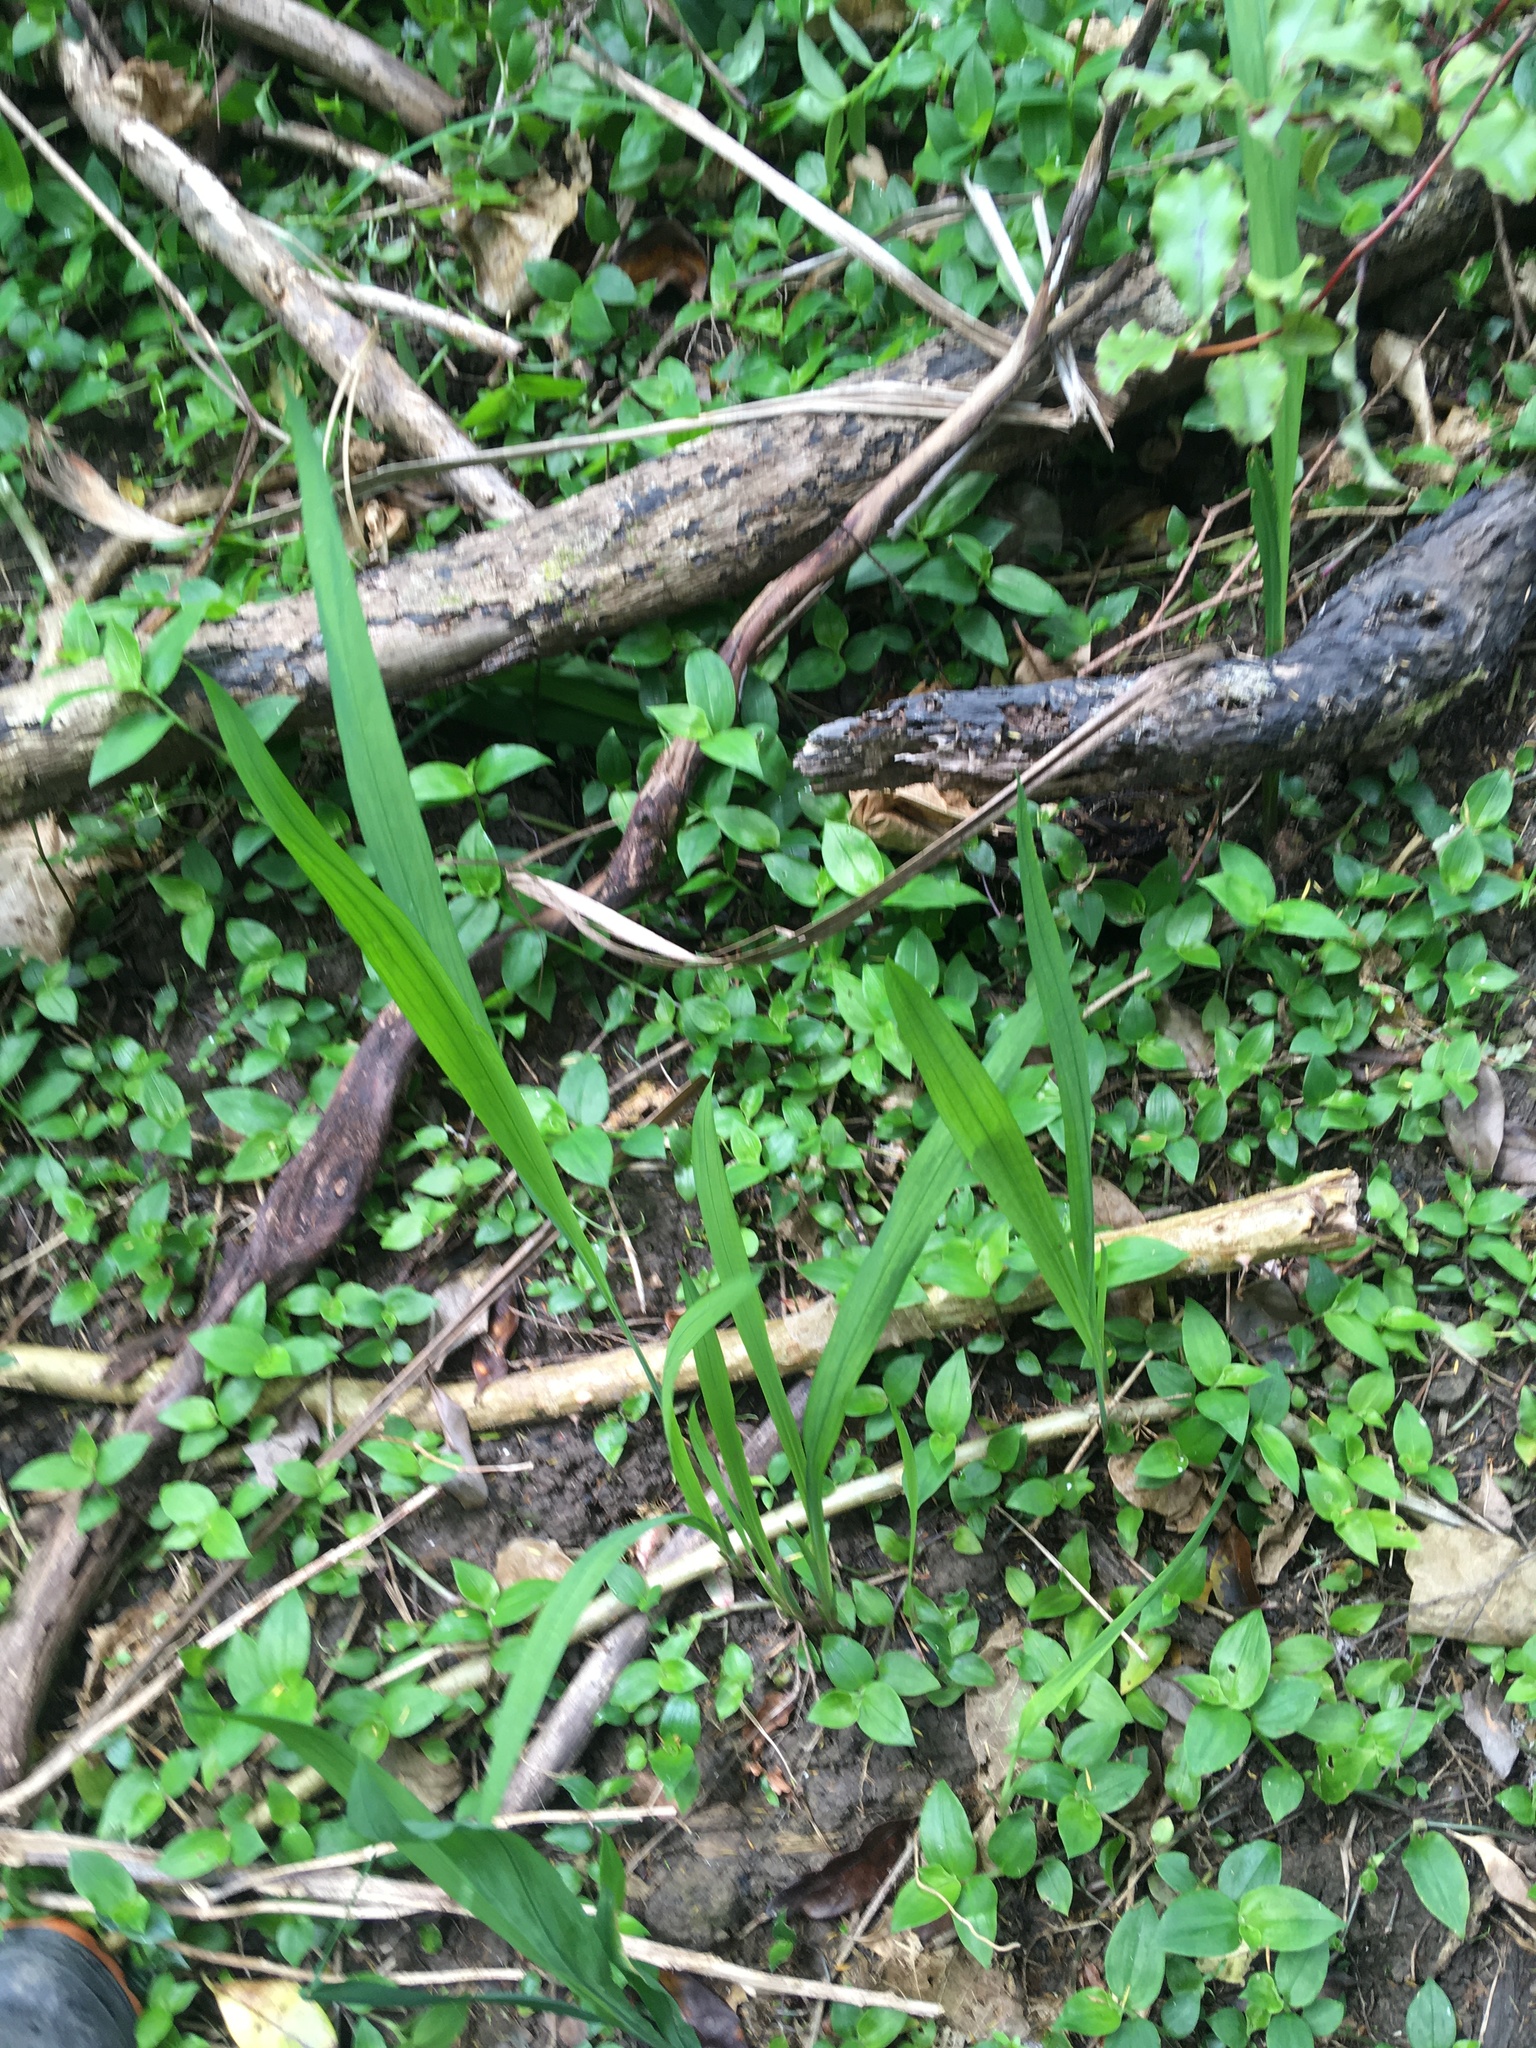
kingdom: Plantae
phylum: Tracheophyta
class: Liliopsida
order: Asparagales
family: Iridaceae
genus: Crocosmia
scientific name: Crocosmia crocosmiiflora
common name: Montbretia
